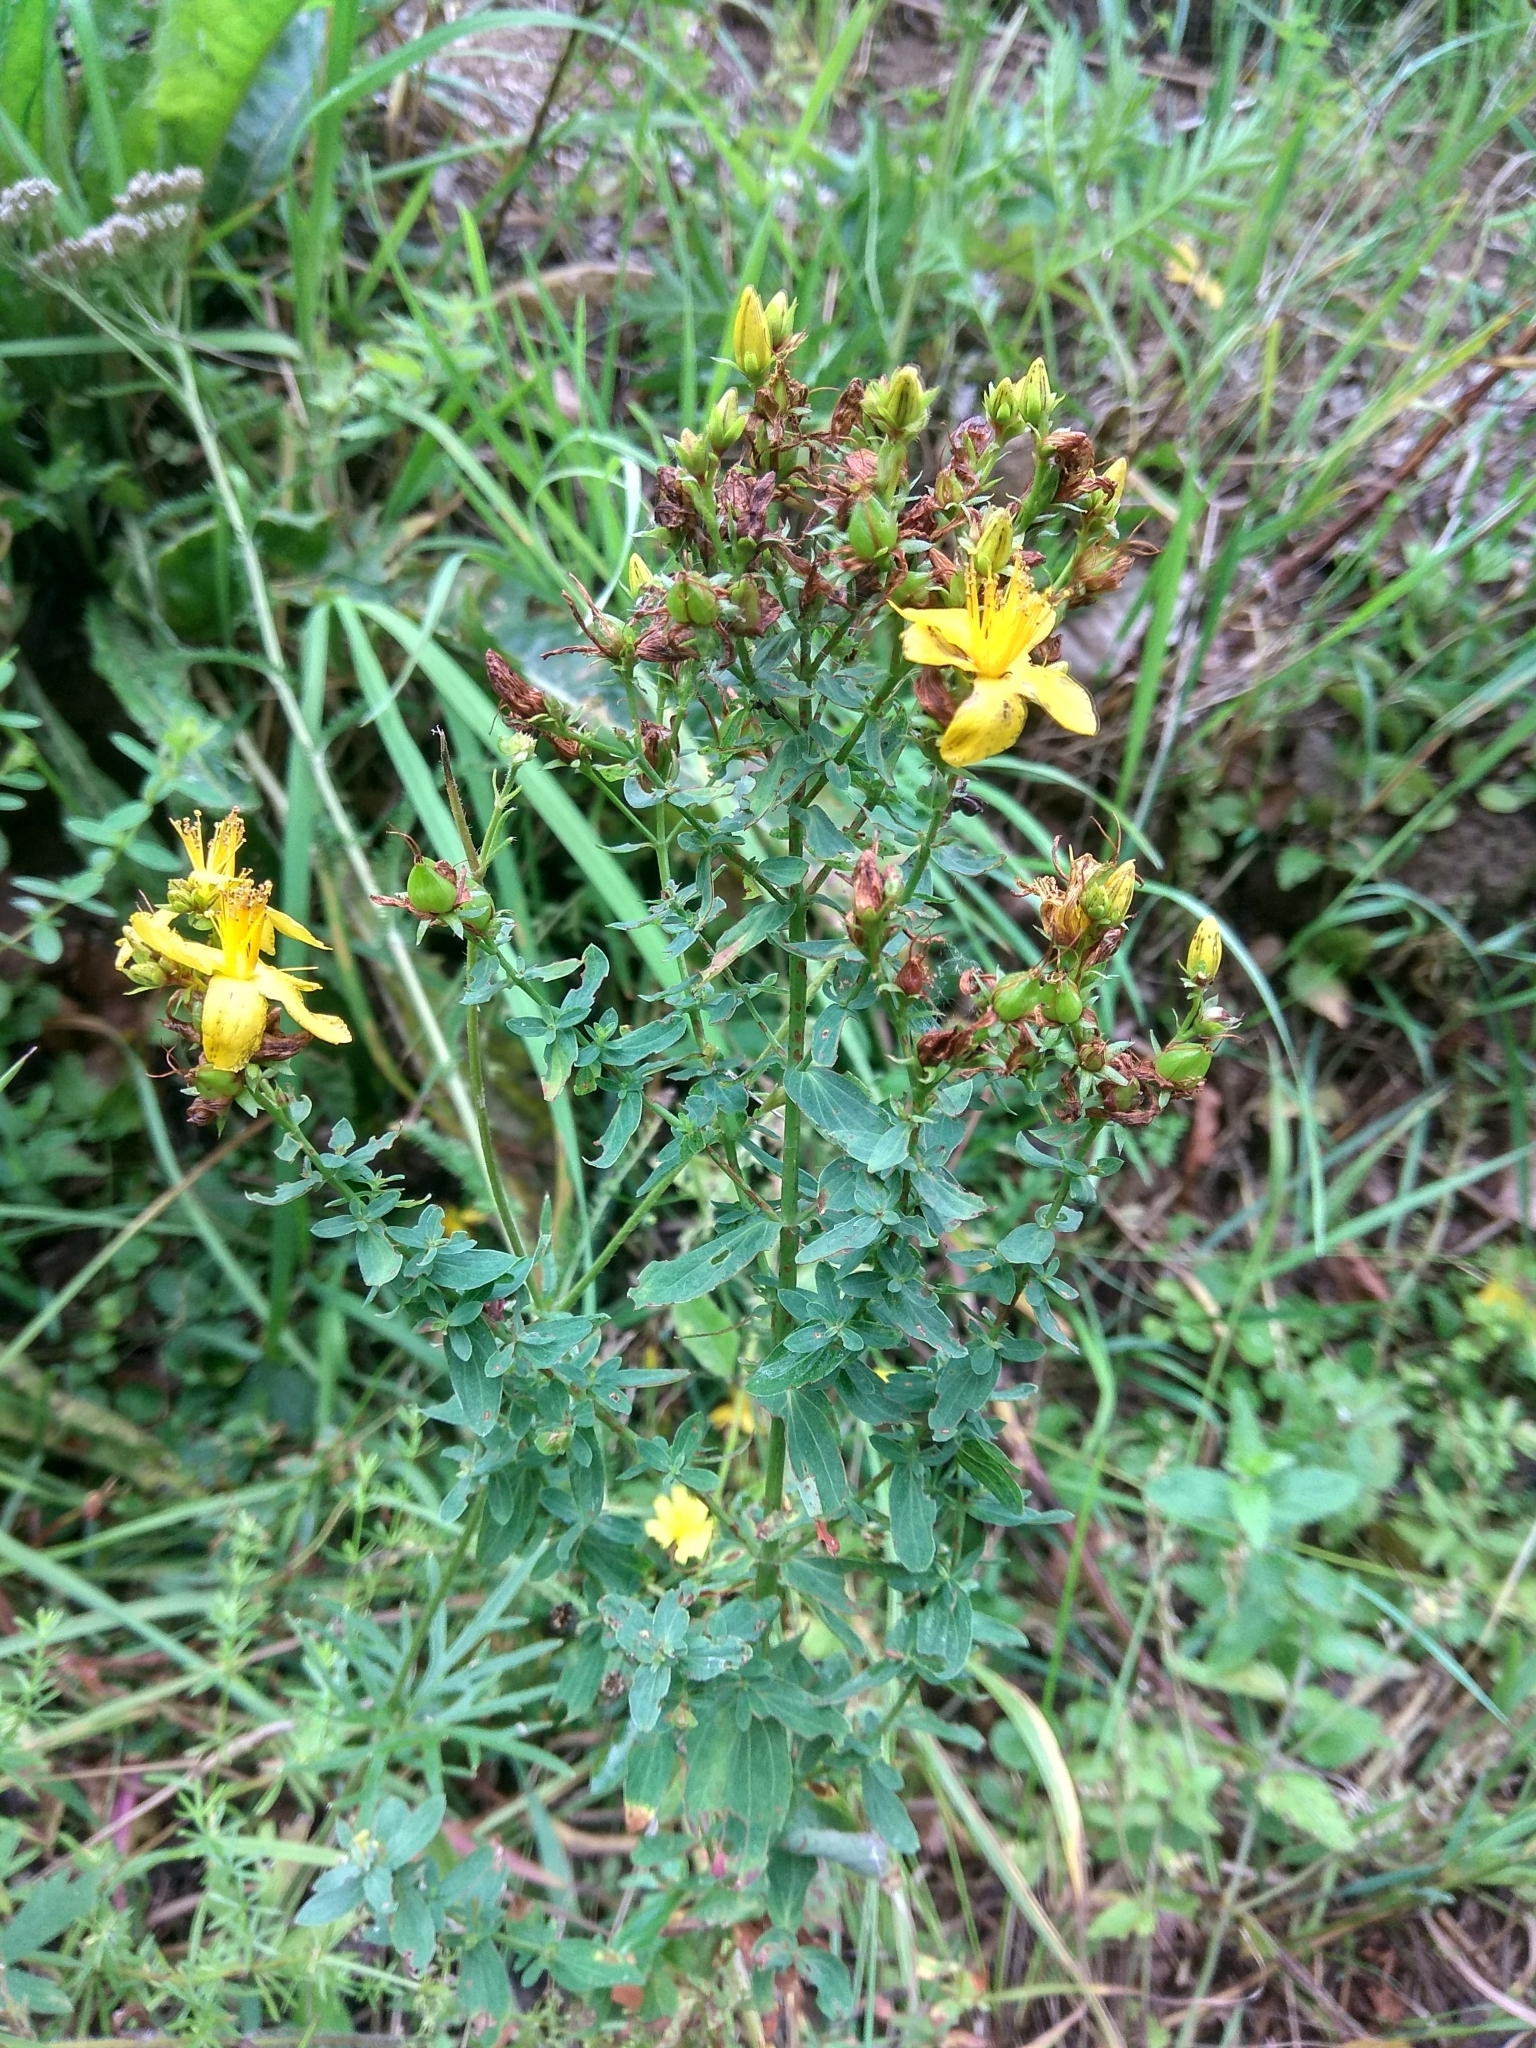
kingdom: Plantae
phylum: Tracheophyta
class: Magnoliopsida
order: Malpighiales
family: Hypericaceae
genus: Hypericum
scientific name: Hypericum perforatum
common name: Common st. johnswort
